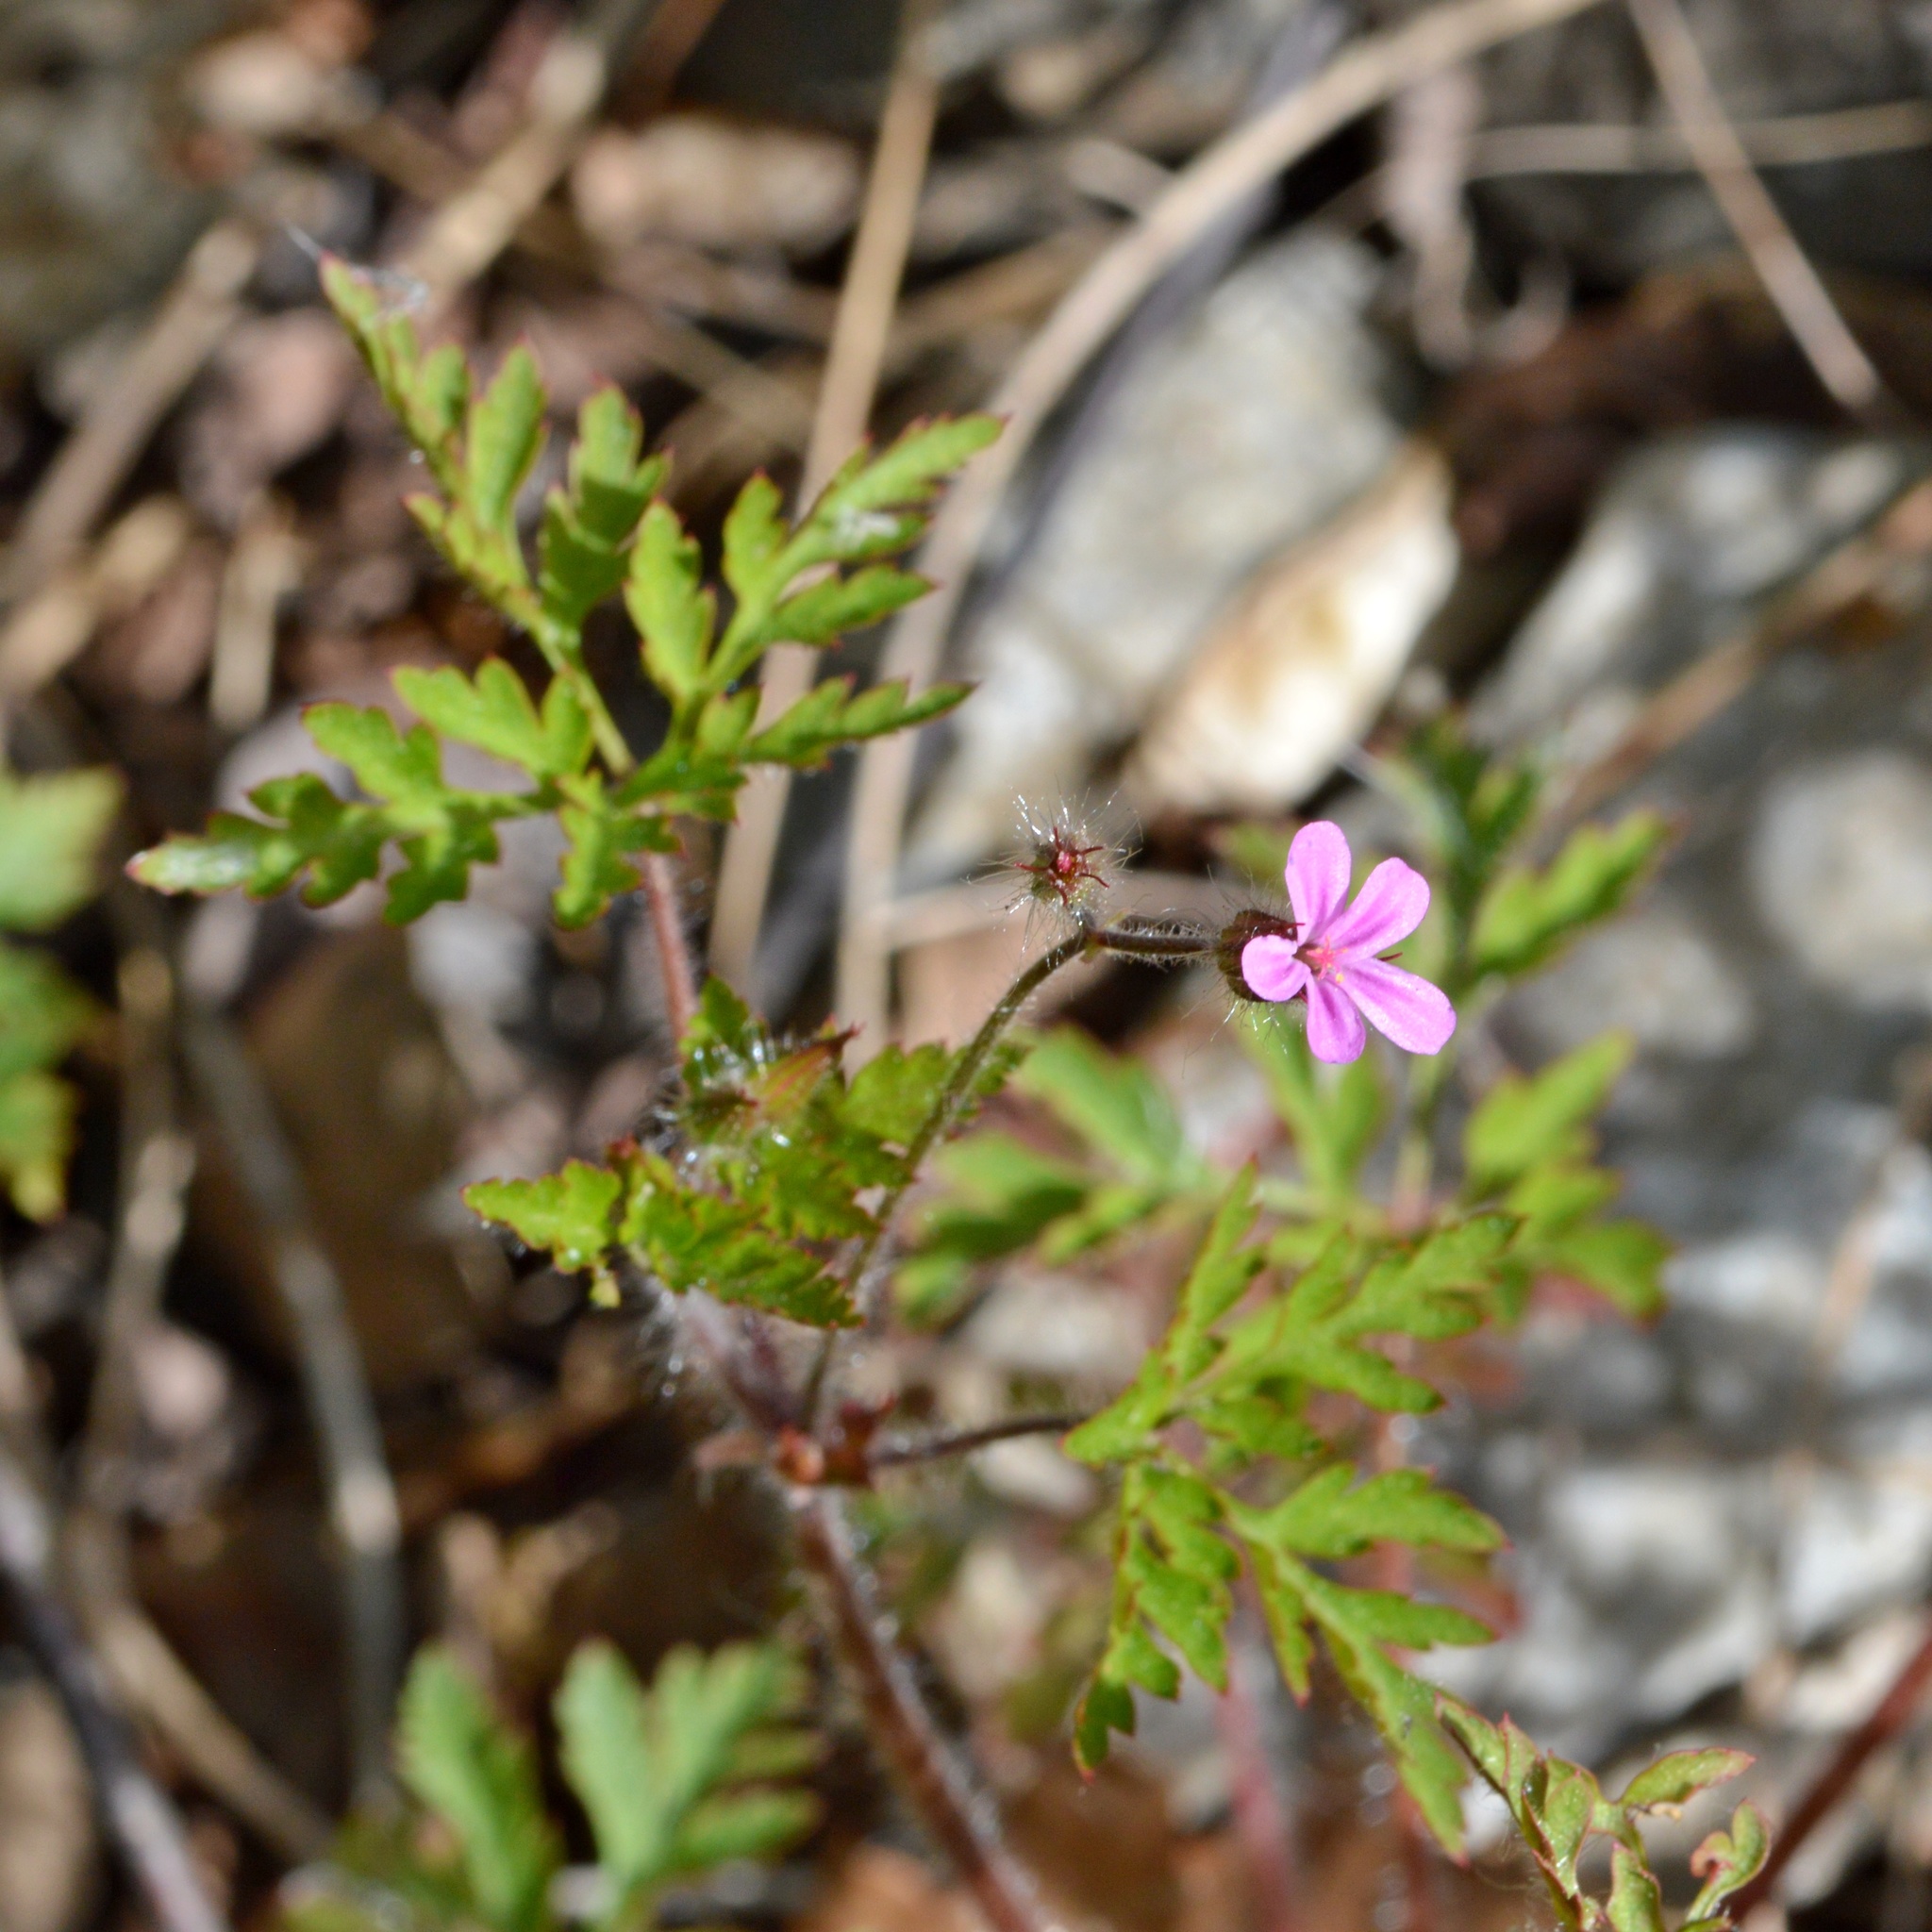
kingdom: Plantae
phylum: Tracheophyta
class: Magnoliopsida
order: Geraniales
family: Geraniaceae
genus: Geranium
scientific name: Geranium robertianum
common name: Herb-robert
